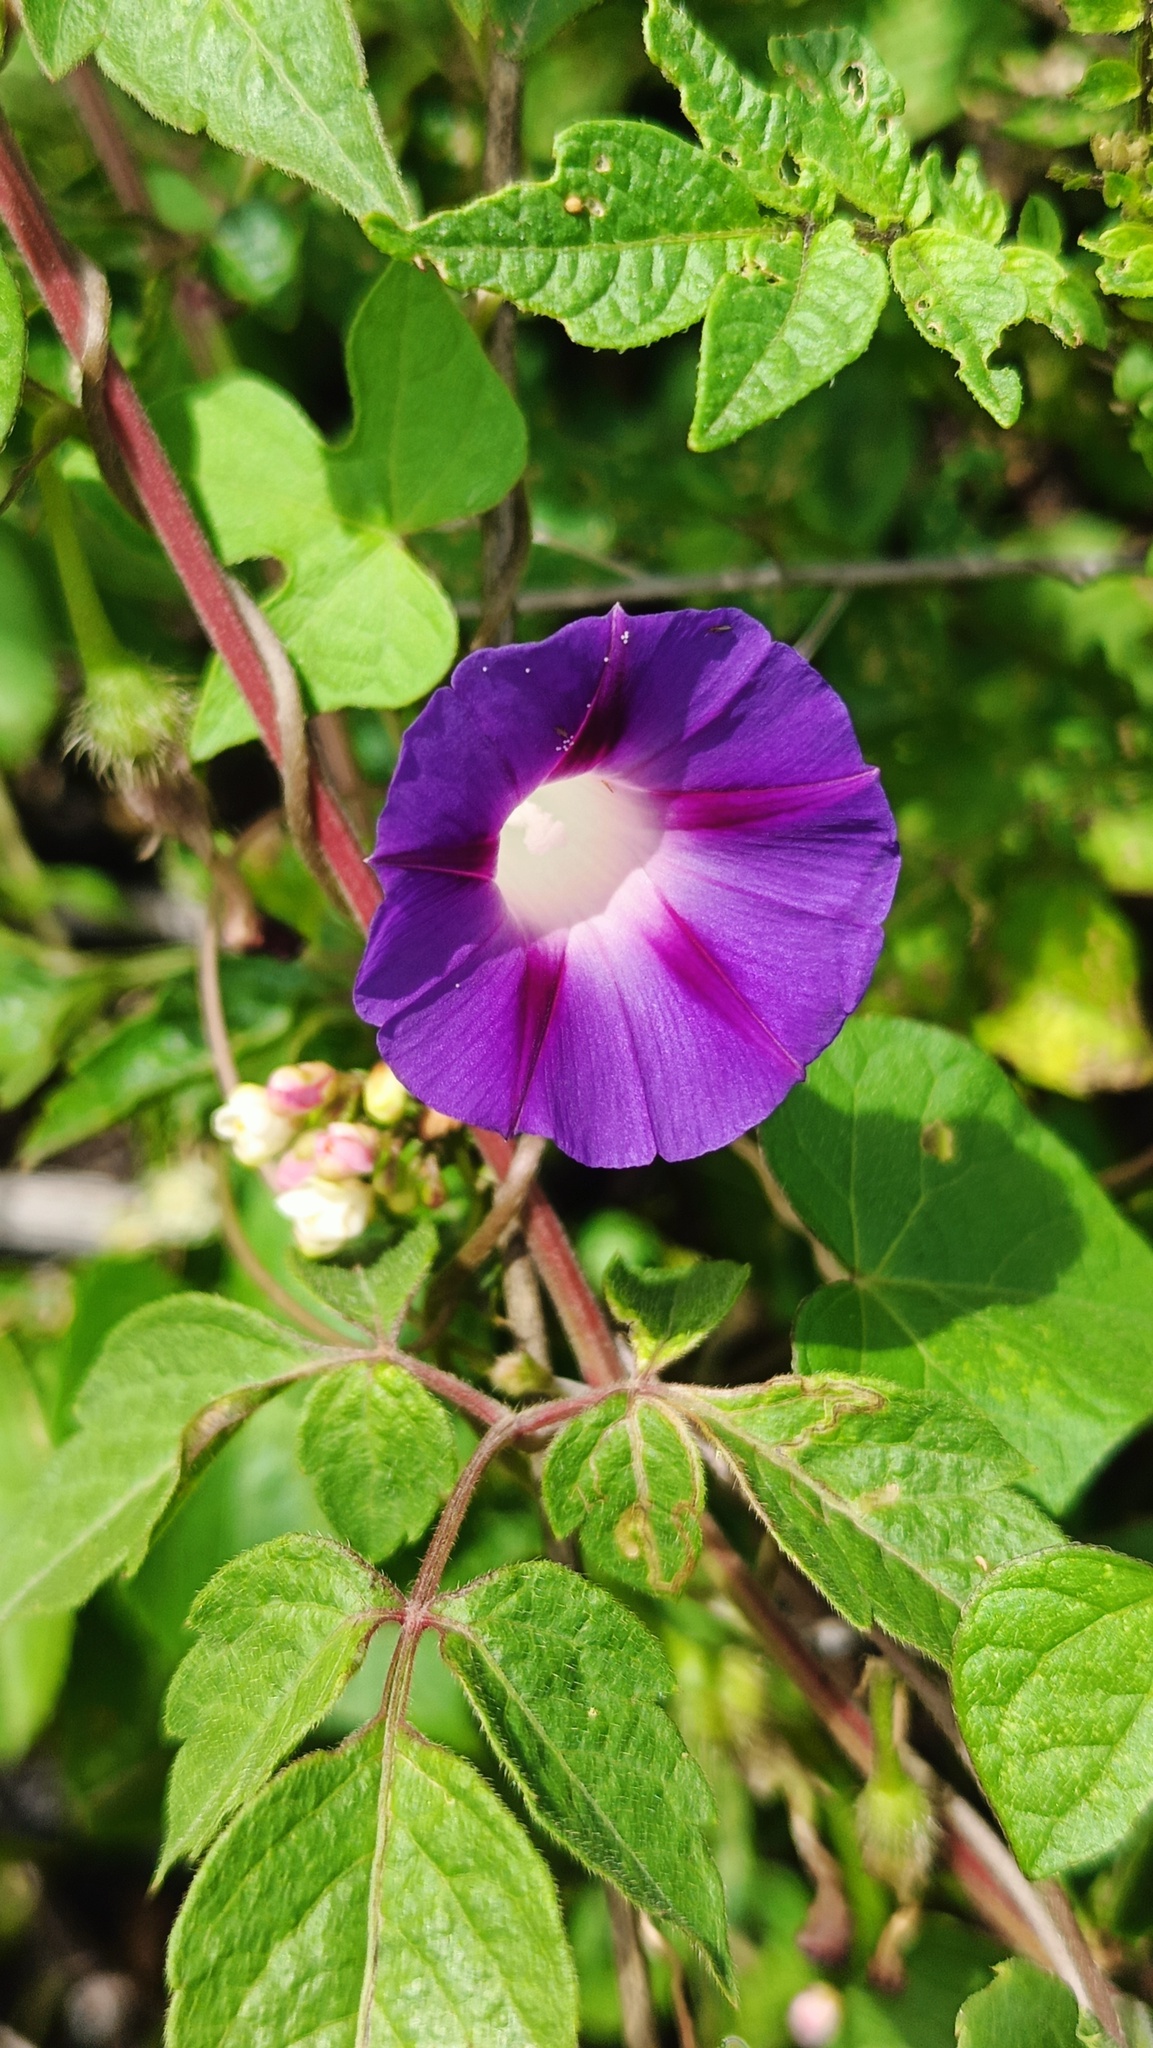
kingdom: Plantae
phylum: Tracheophyta
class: Magnoliopsida
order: Solanales
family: Convolvulaceae
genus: Ipomoea
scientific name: Ipomoea purpurea
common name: Common morning-glory
